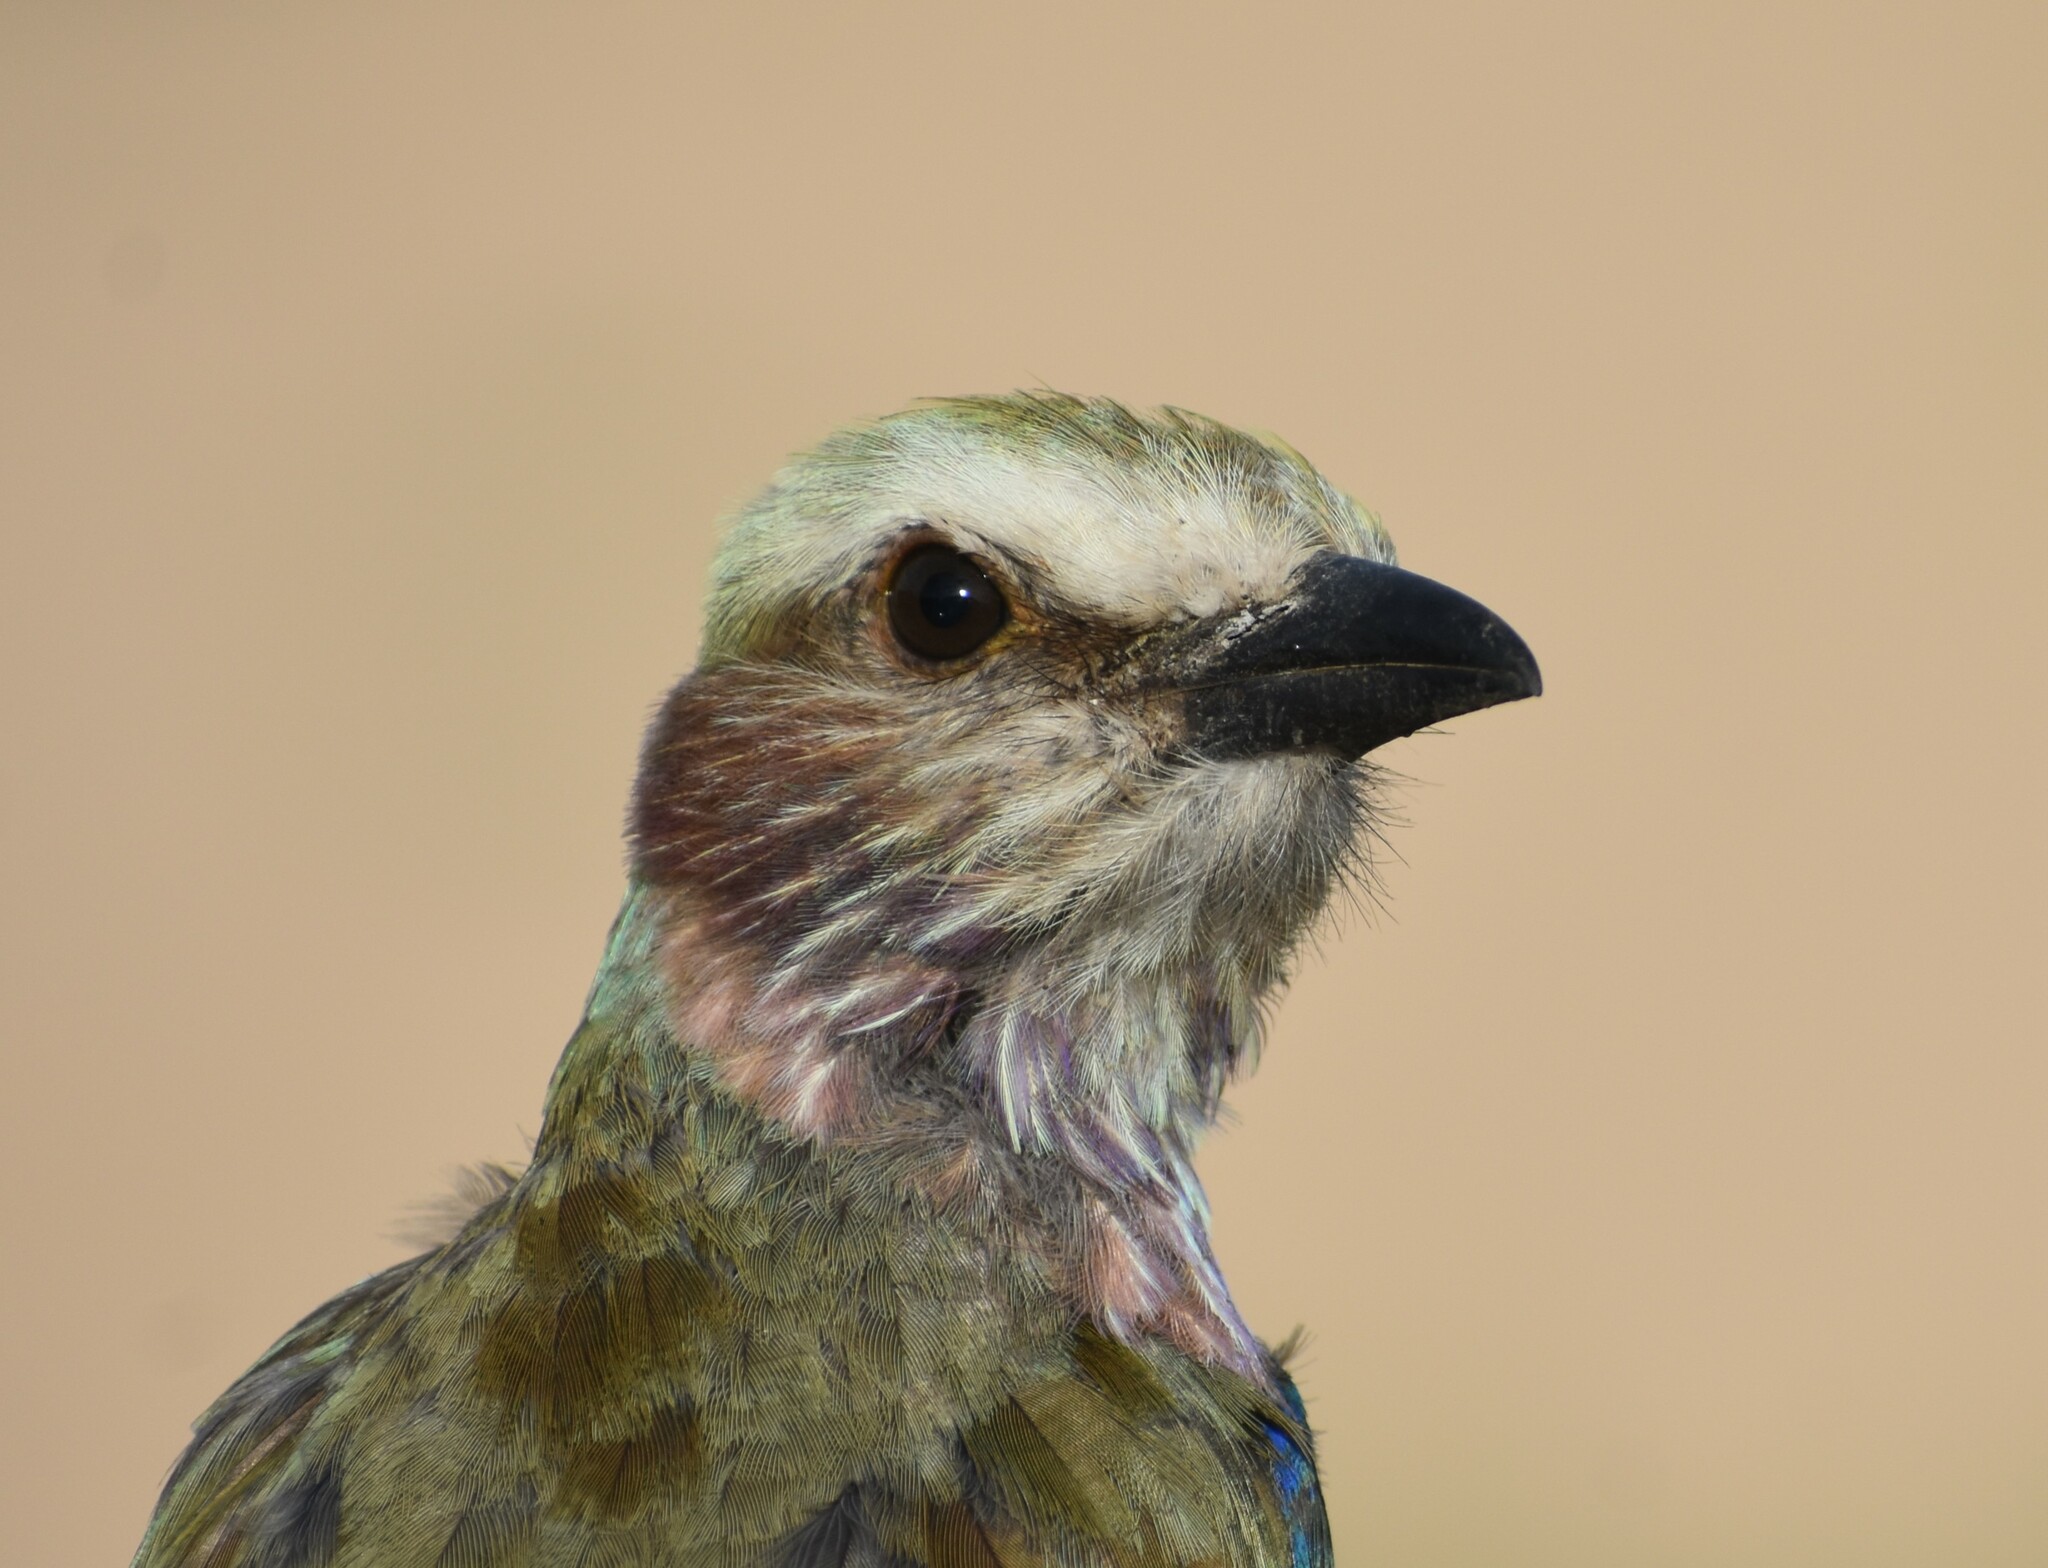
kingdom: Animalia
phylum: Chordata
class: Aves
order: Coraciiformes
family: Coraciidae
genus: Coracias
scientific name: Coracias caudatus
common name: Lilac-breasted roller
